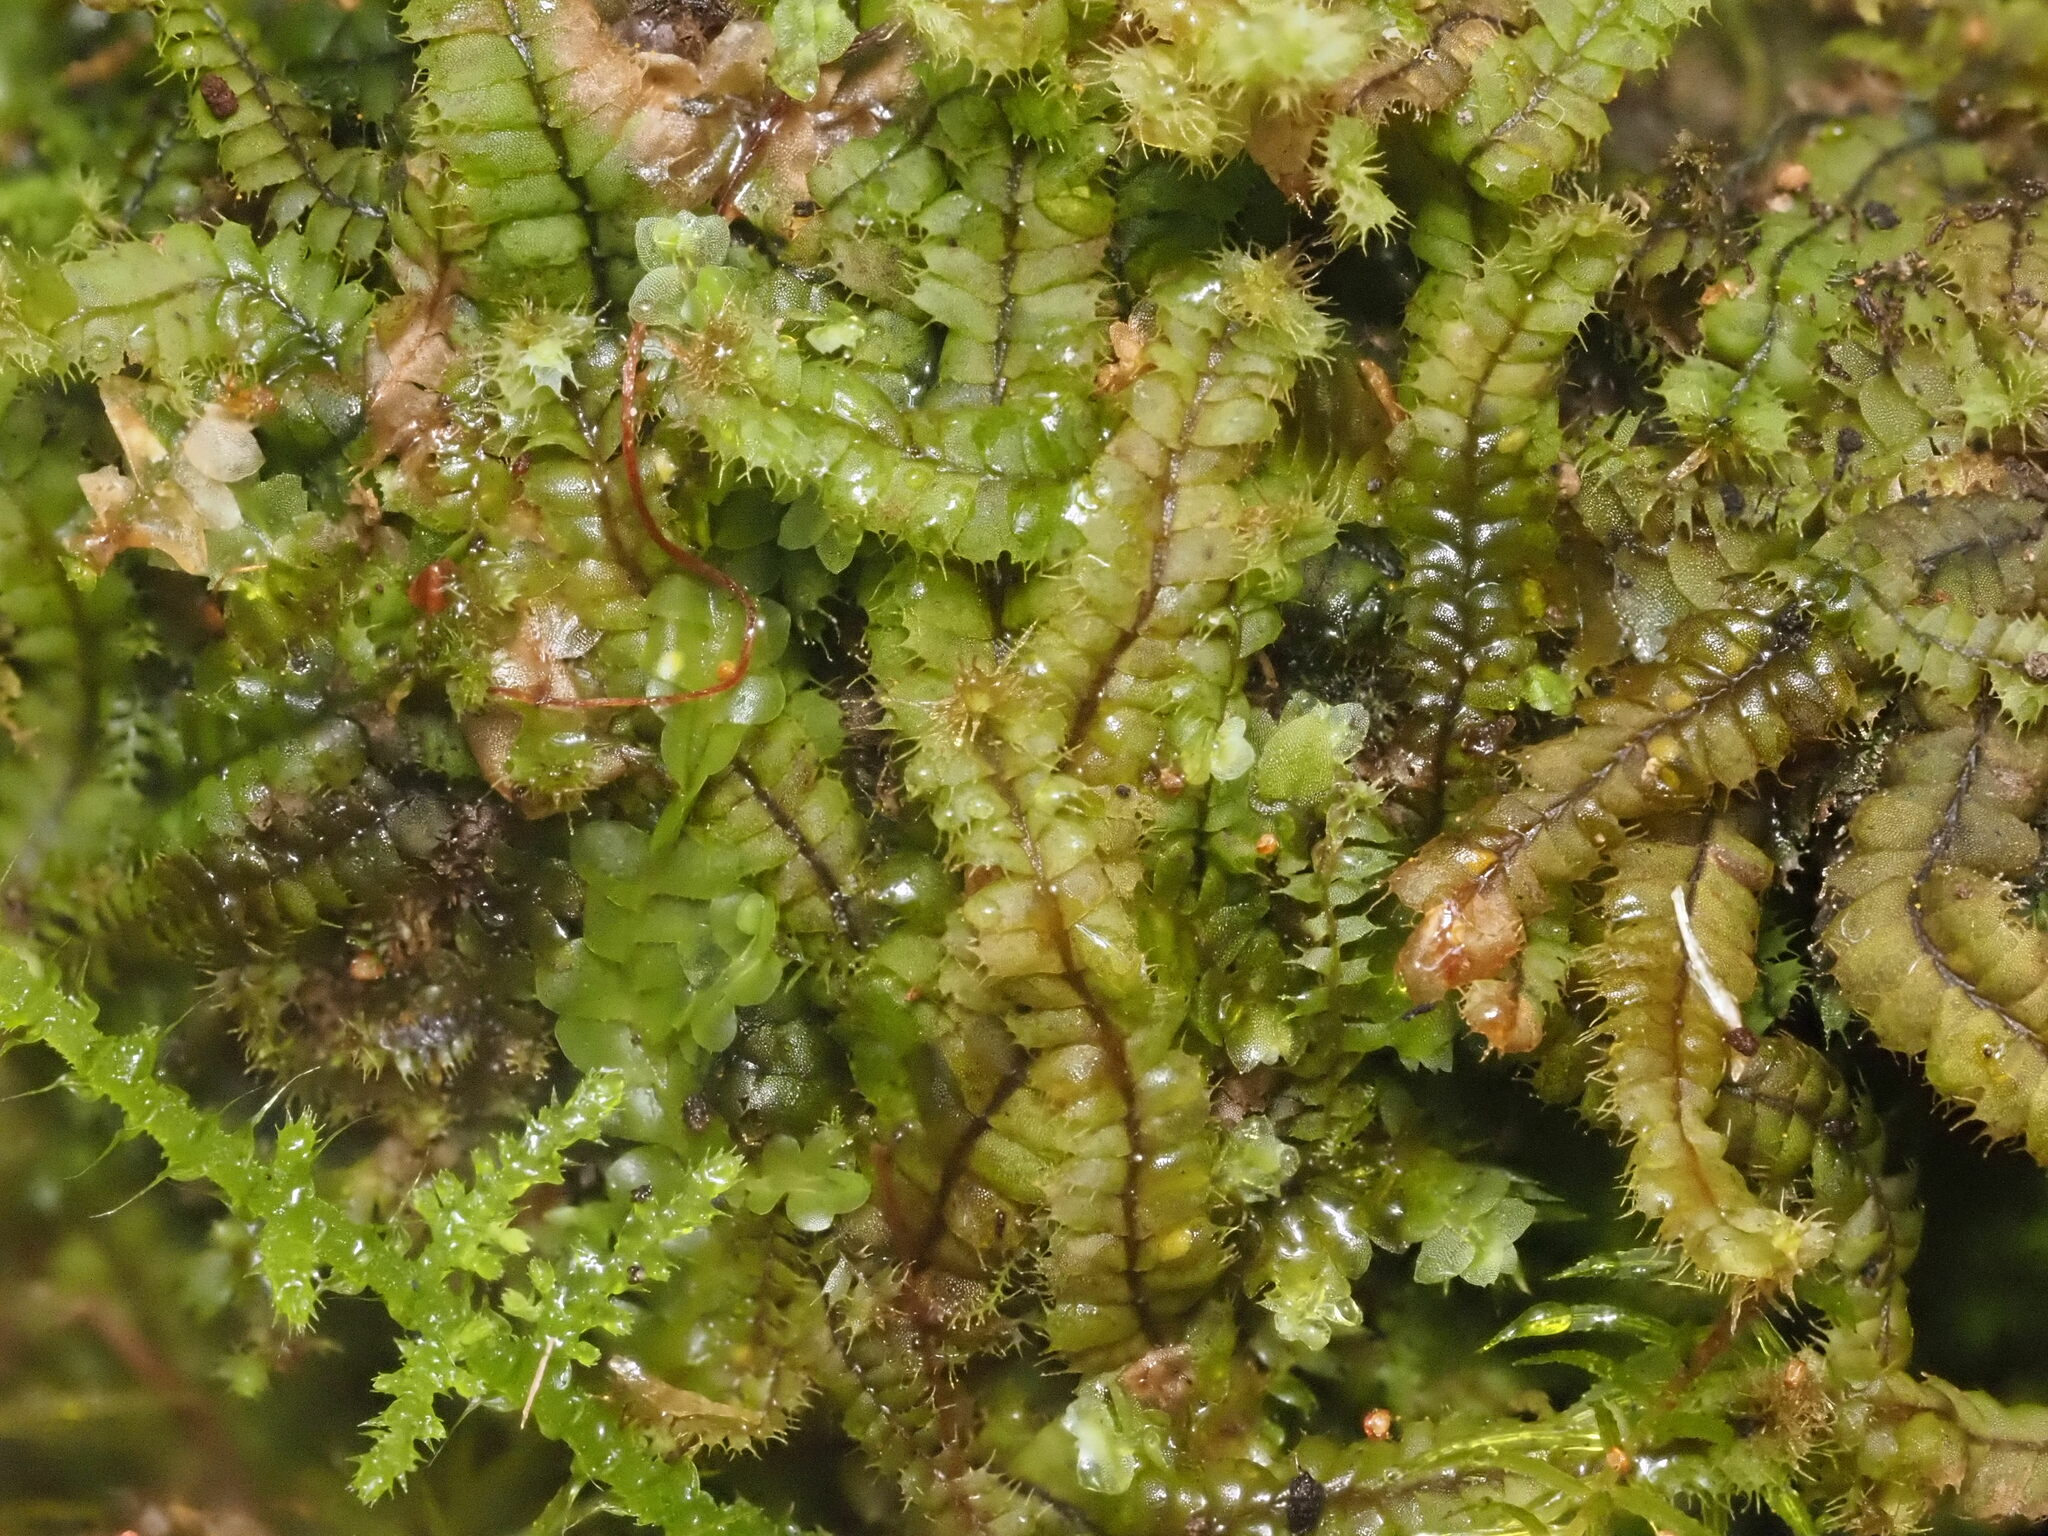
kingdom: Plantae
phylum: Marchantiophyta
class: Jungermanniopsida
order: Jungermanniales
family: Lophocoleaceae
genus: Leptoscyphus
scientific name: Leptoscyphus
